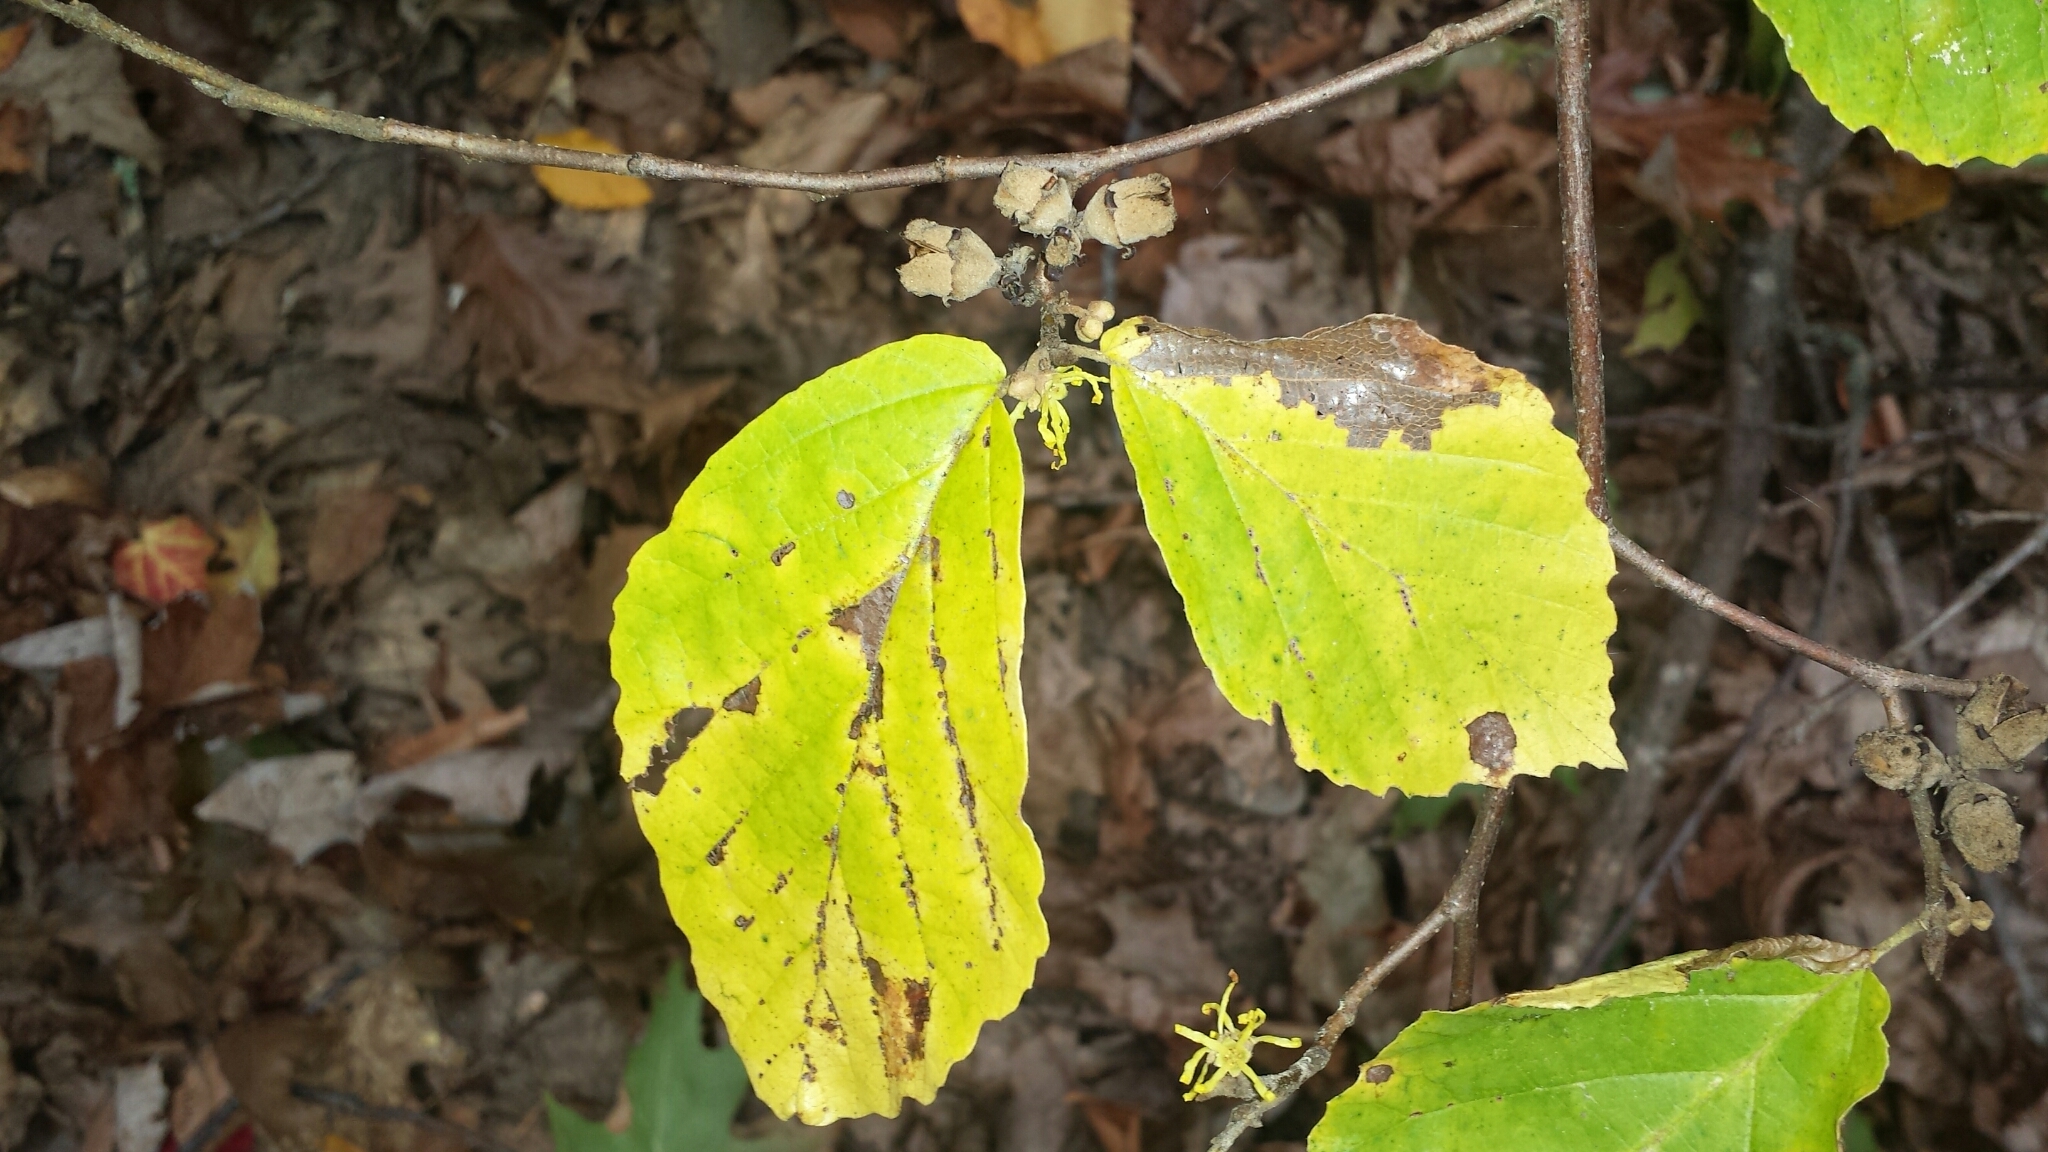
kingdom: Plantae
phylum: Tracheophyta
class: Magnoliopsida
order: Saxifragales
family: Hamamelidaceae
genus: Hamamelis
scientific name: Hamamelis virginiana
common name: Witch-hazel
